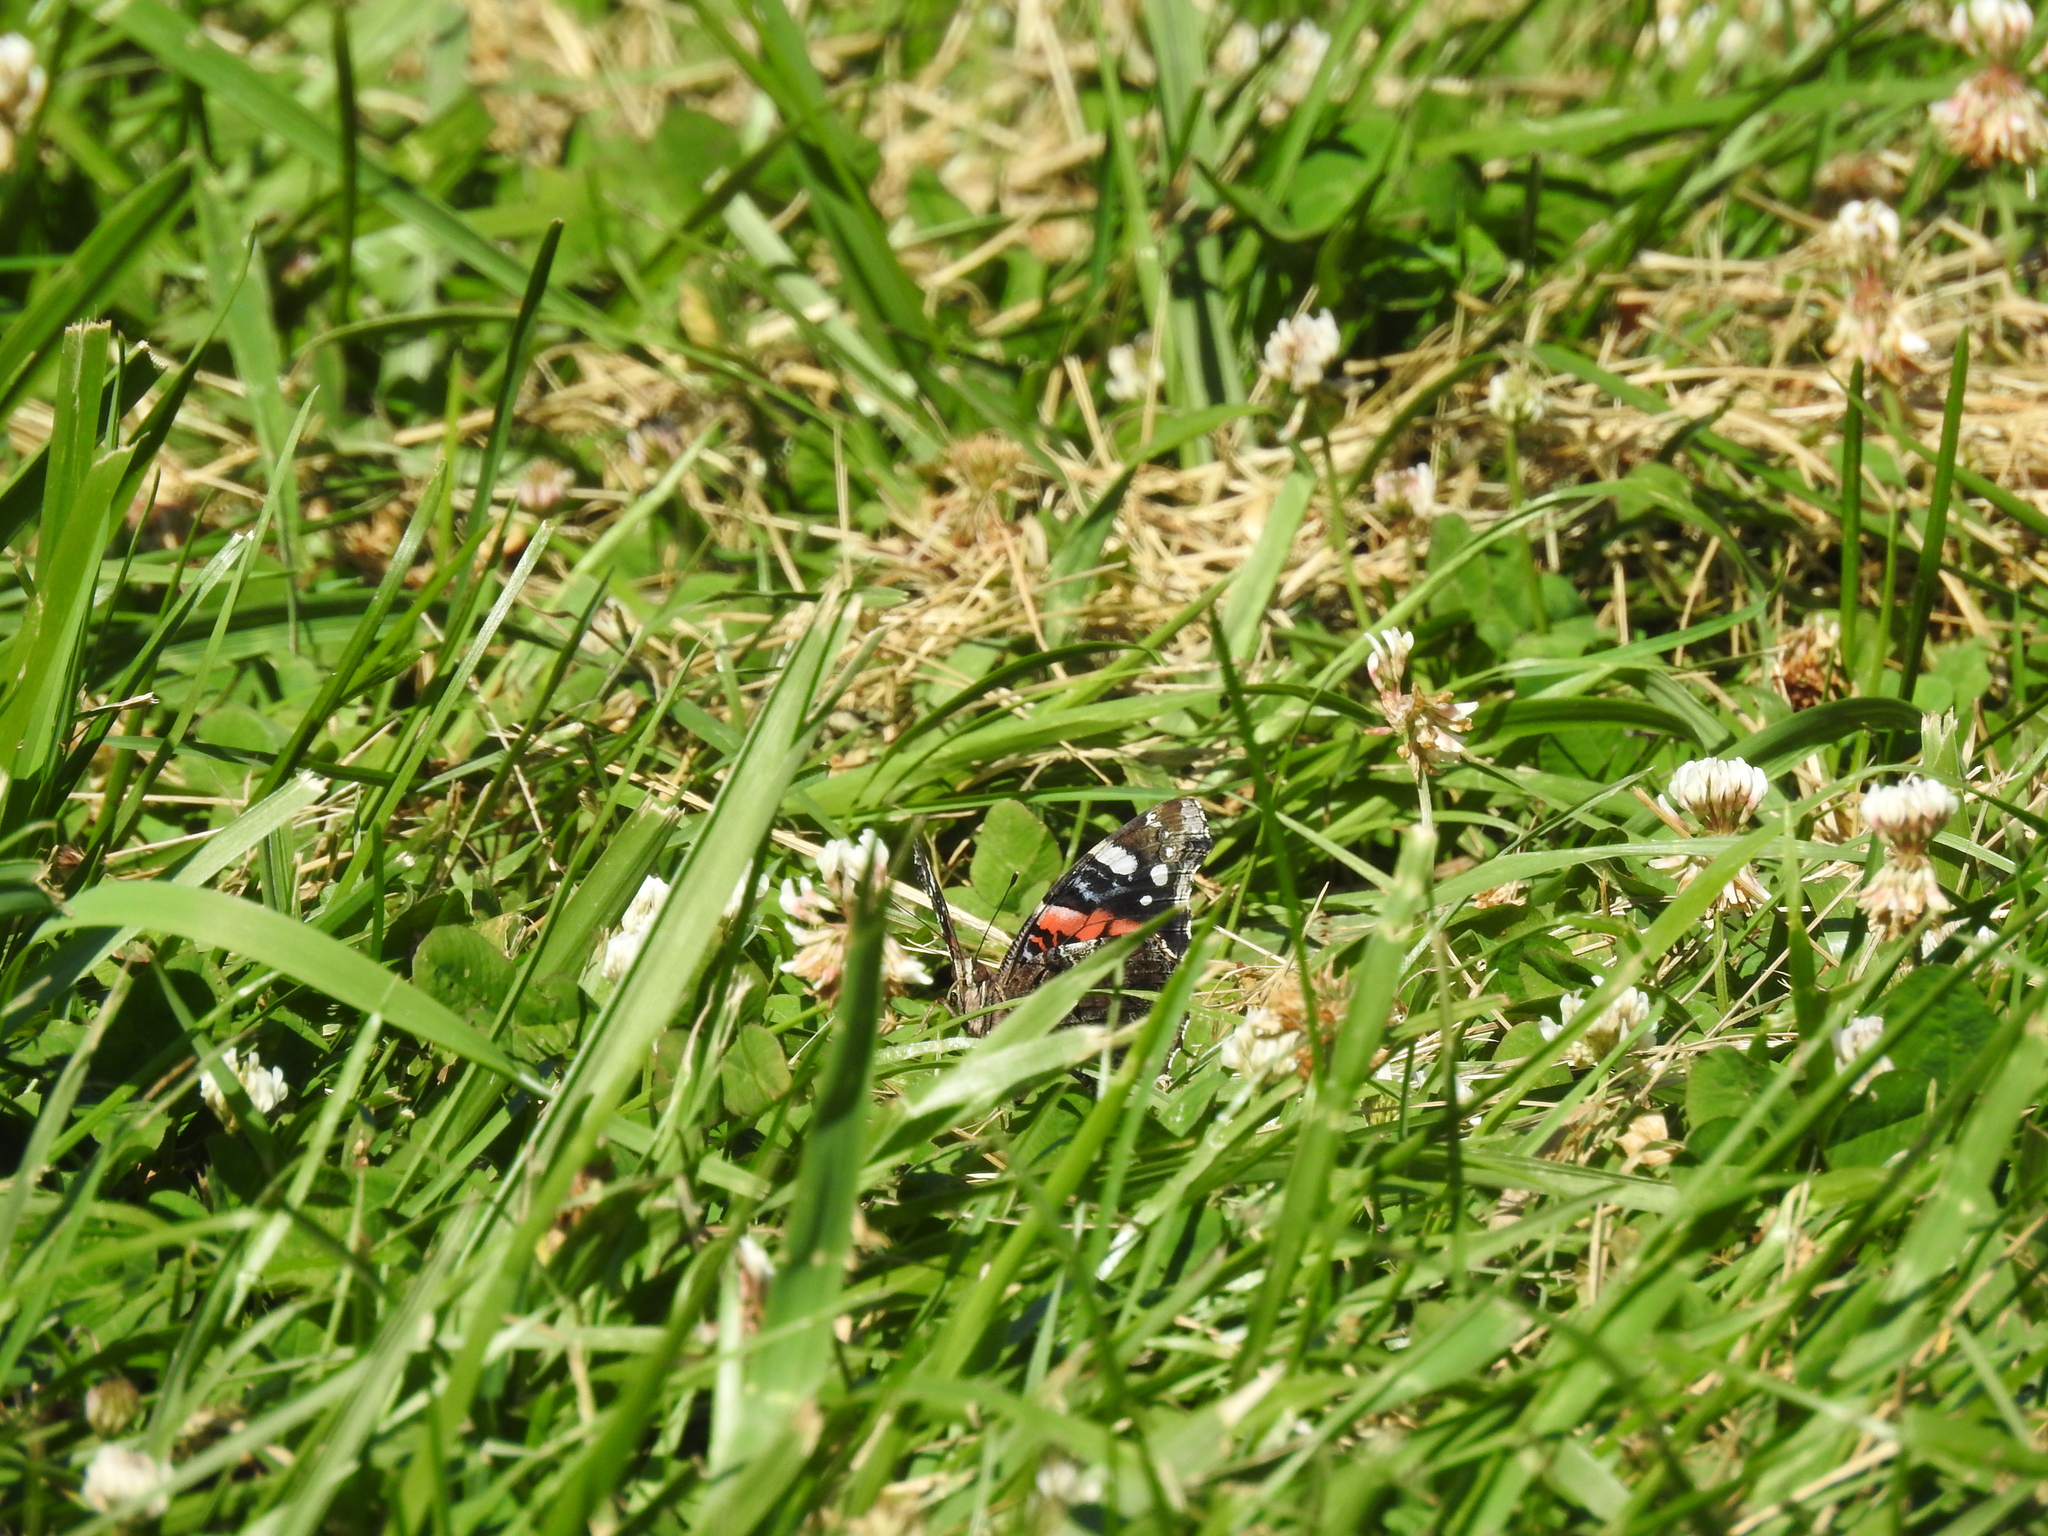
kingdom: Animalia
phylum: Arthropoda
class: Insecta
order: Lepidoptera
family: Nymphalidae
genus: Vanessa
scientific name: Vanessa atalanta
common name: Red admiral
